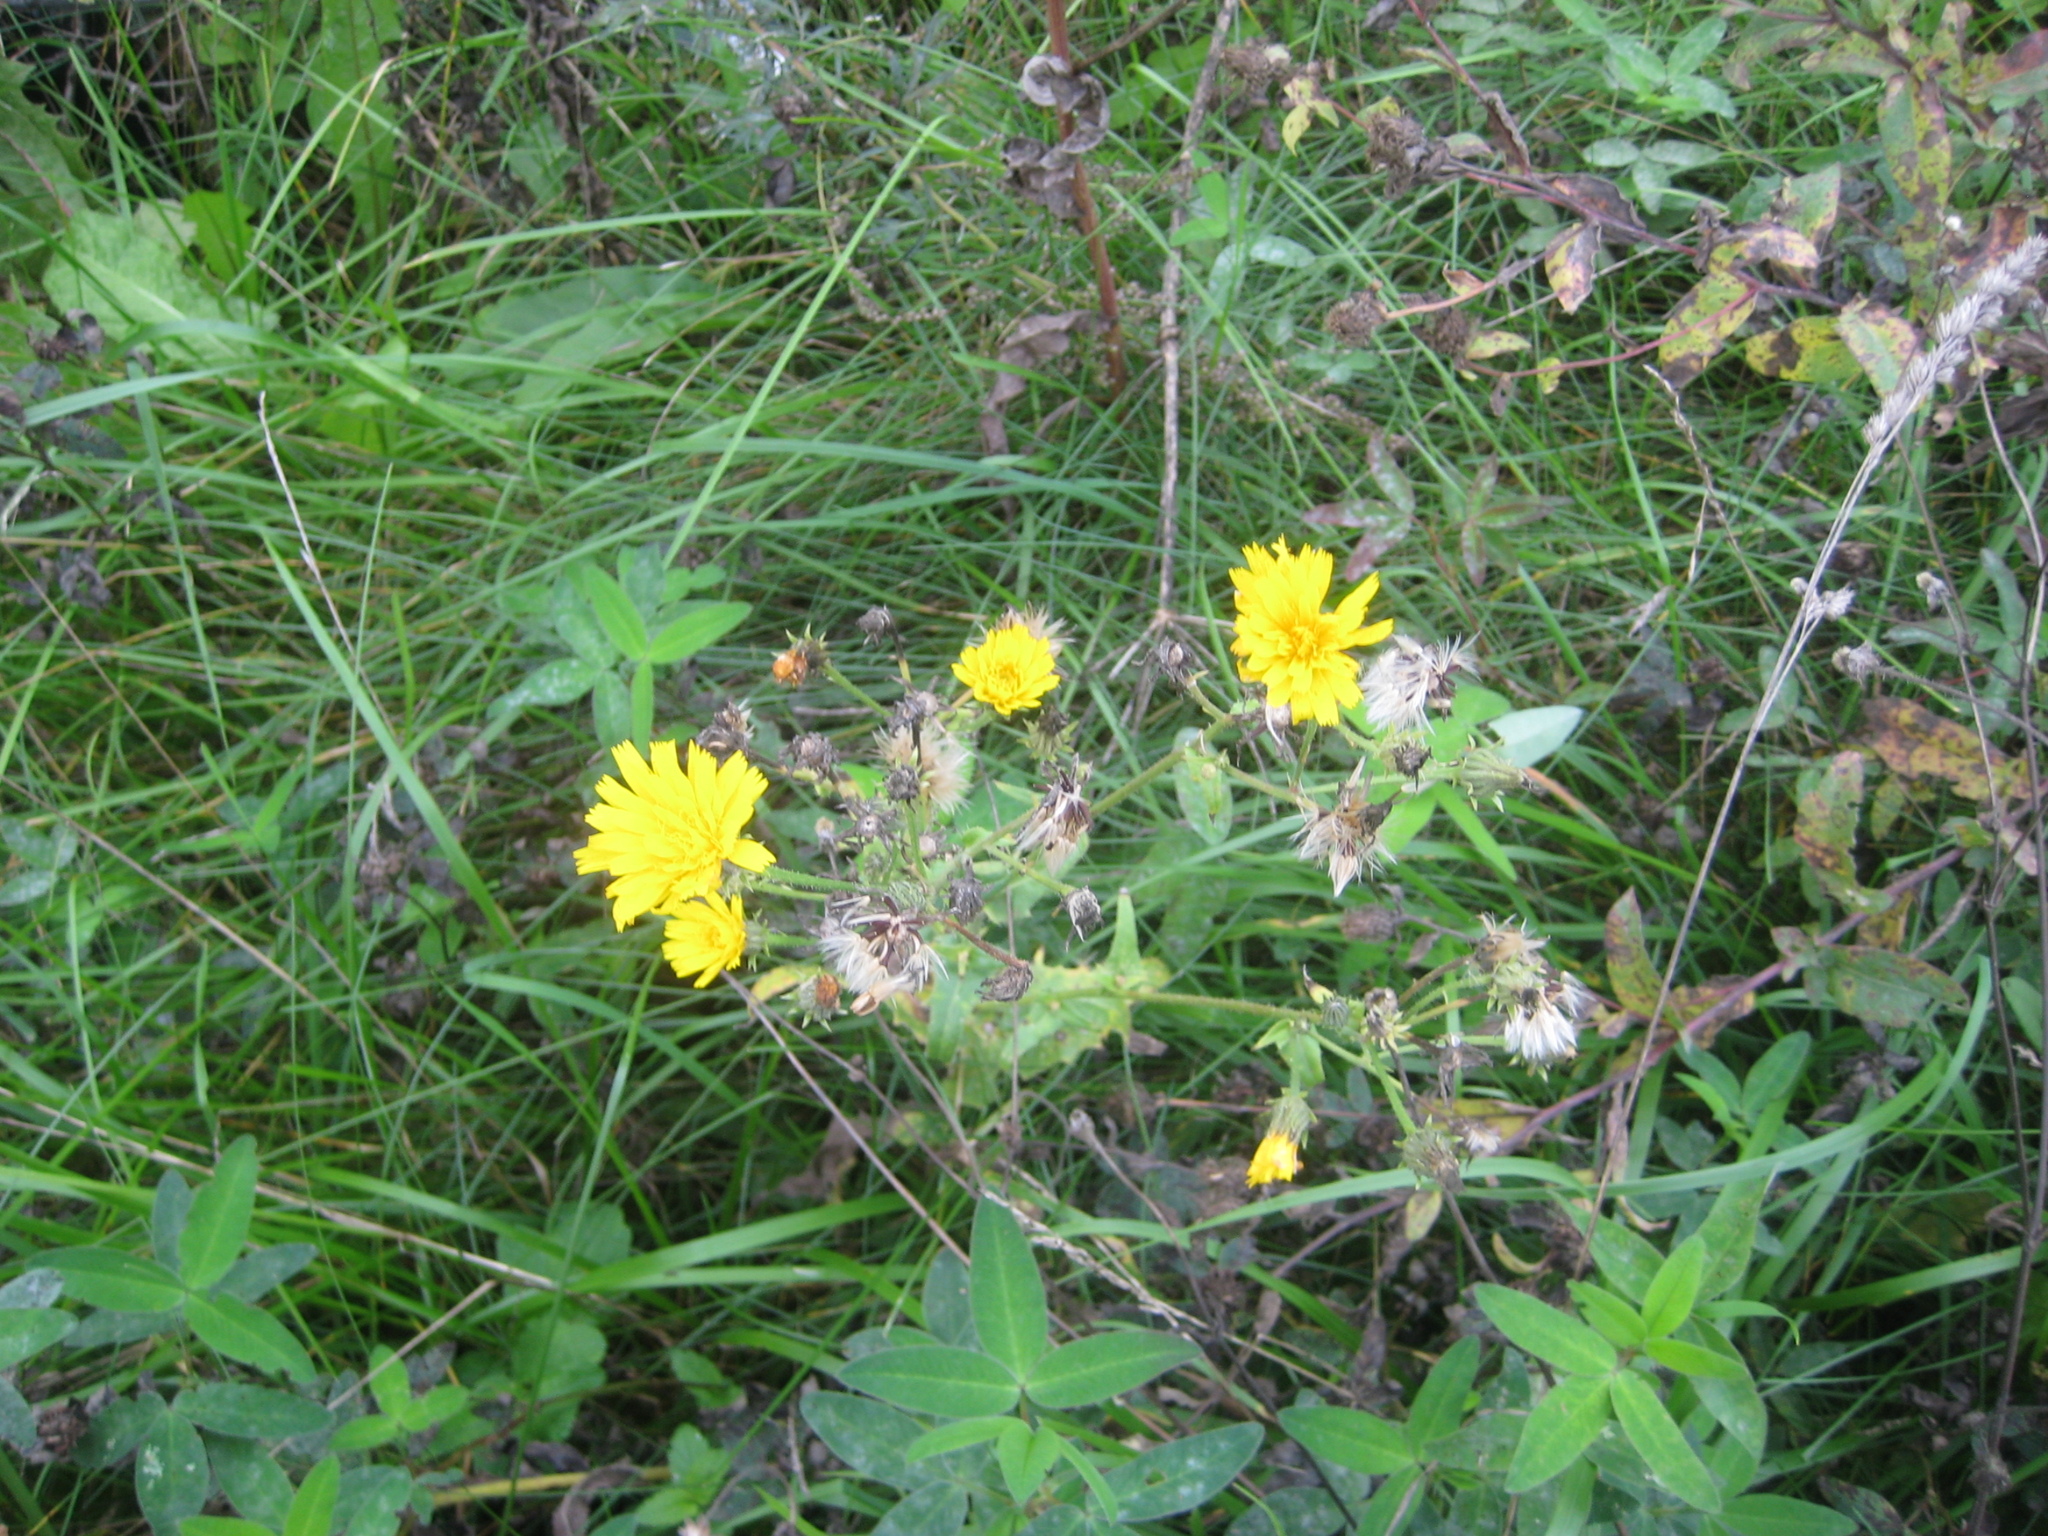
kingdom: Plantae
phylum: Tracheophyta
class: Magnoliopsida
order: Asterales
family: Asteraceae
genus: Picris
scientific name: Picris hieracioides
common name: Hawkweed oxtongue
